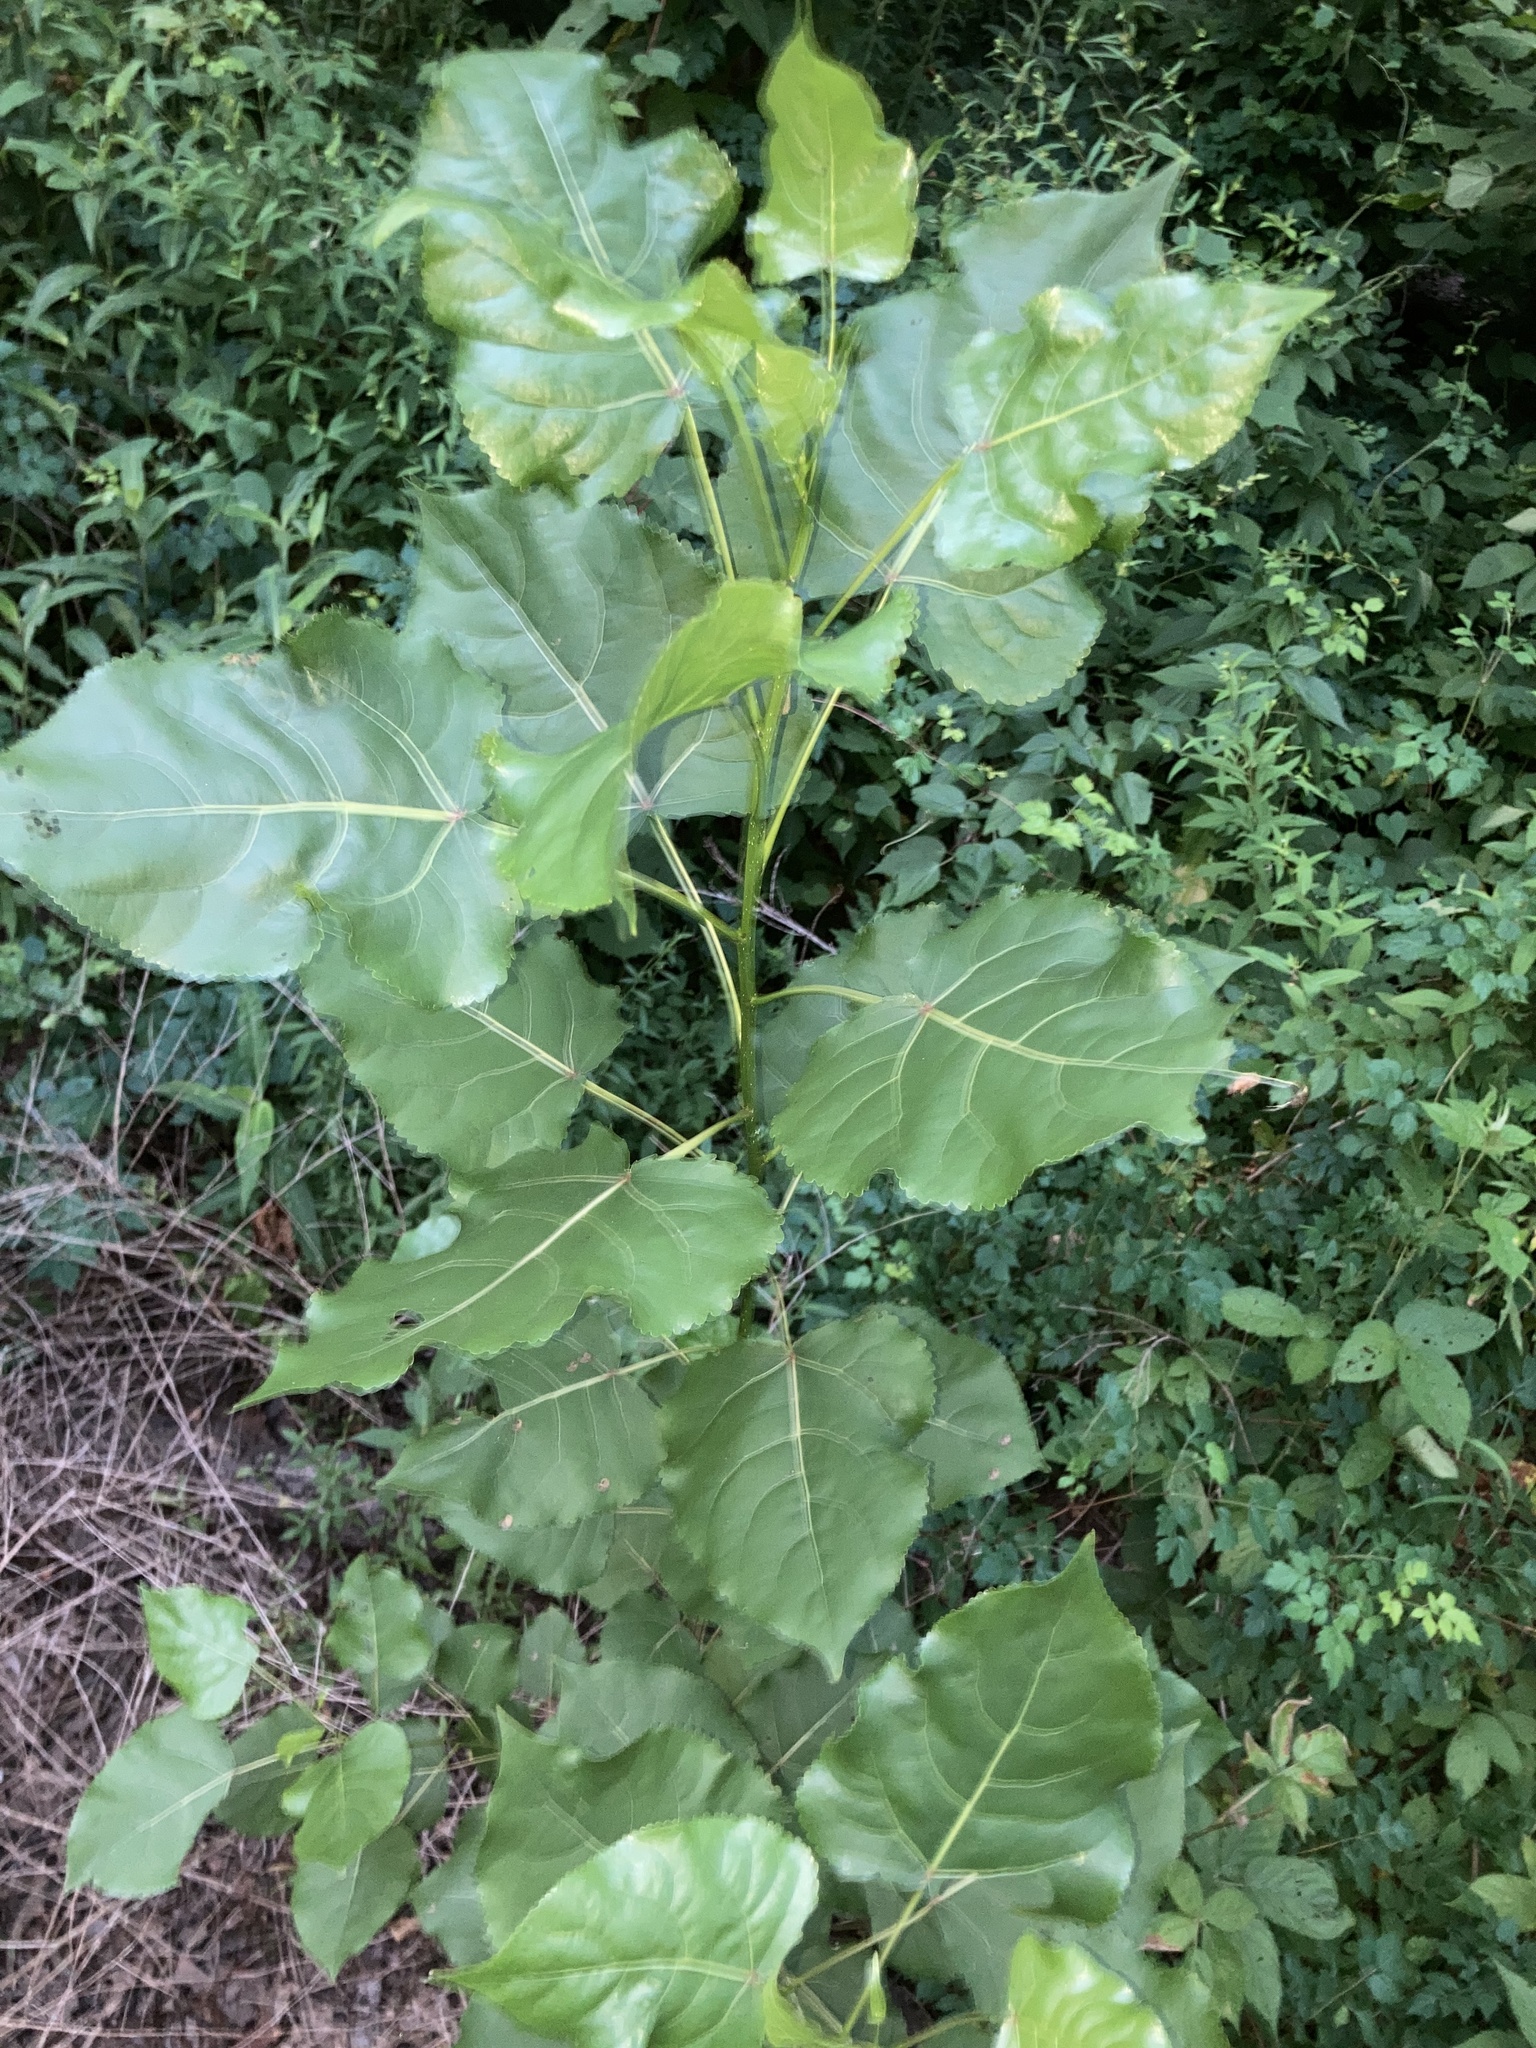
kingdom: Plantae
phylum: Tracheophyta
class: Magnoliopsida
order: Malpighiales
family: Salicaceae
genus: Populus
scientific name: Populus deltoides
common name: Eastern cottonwood
